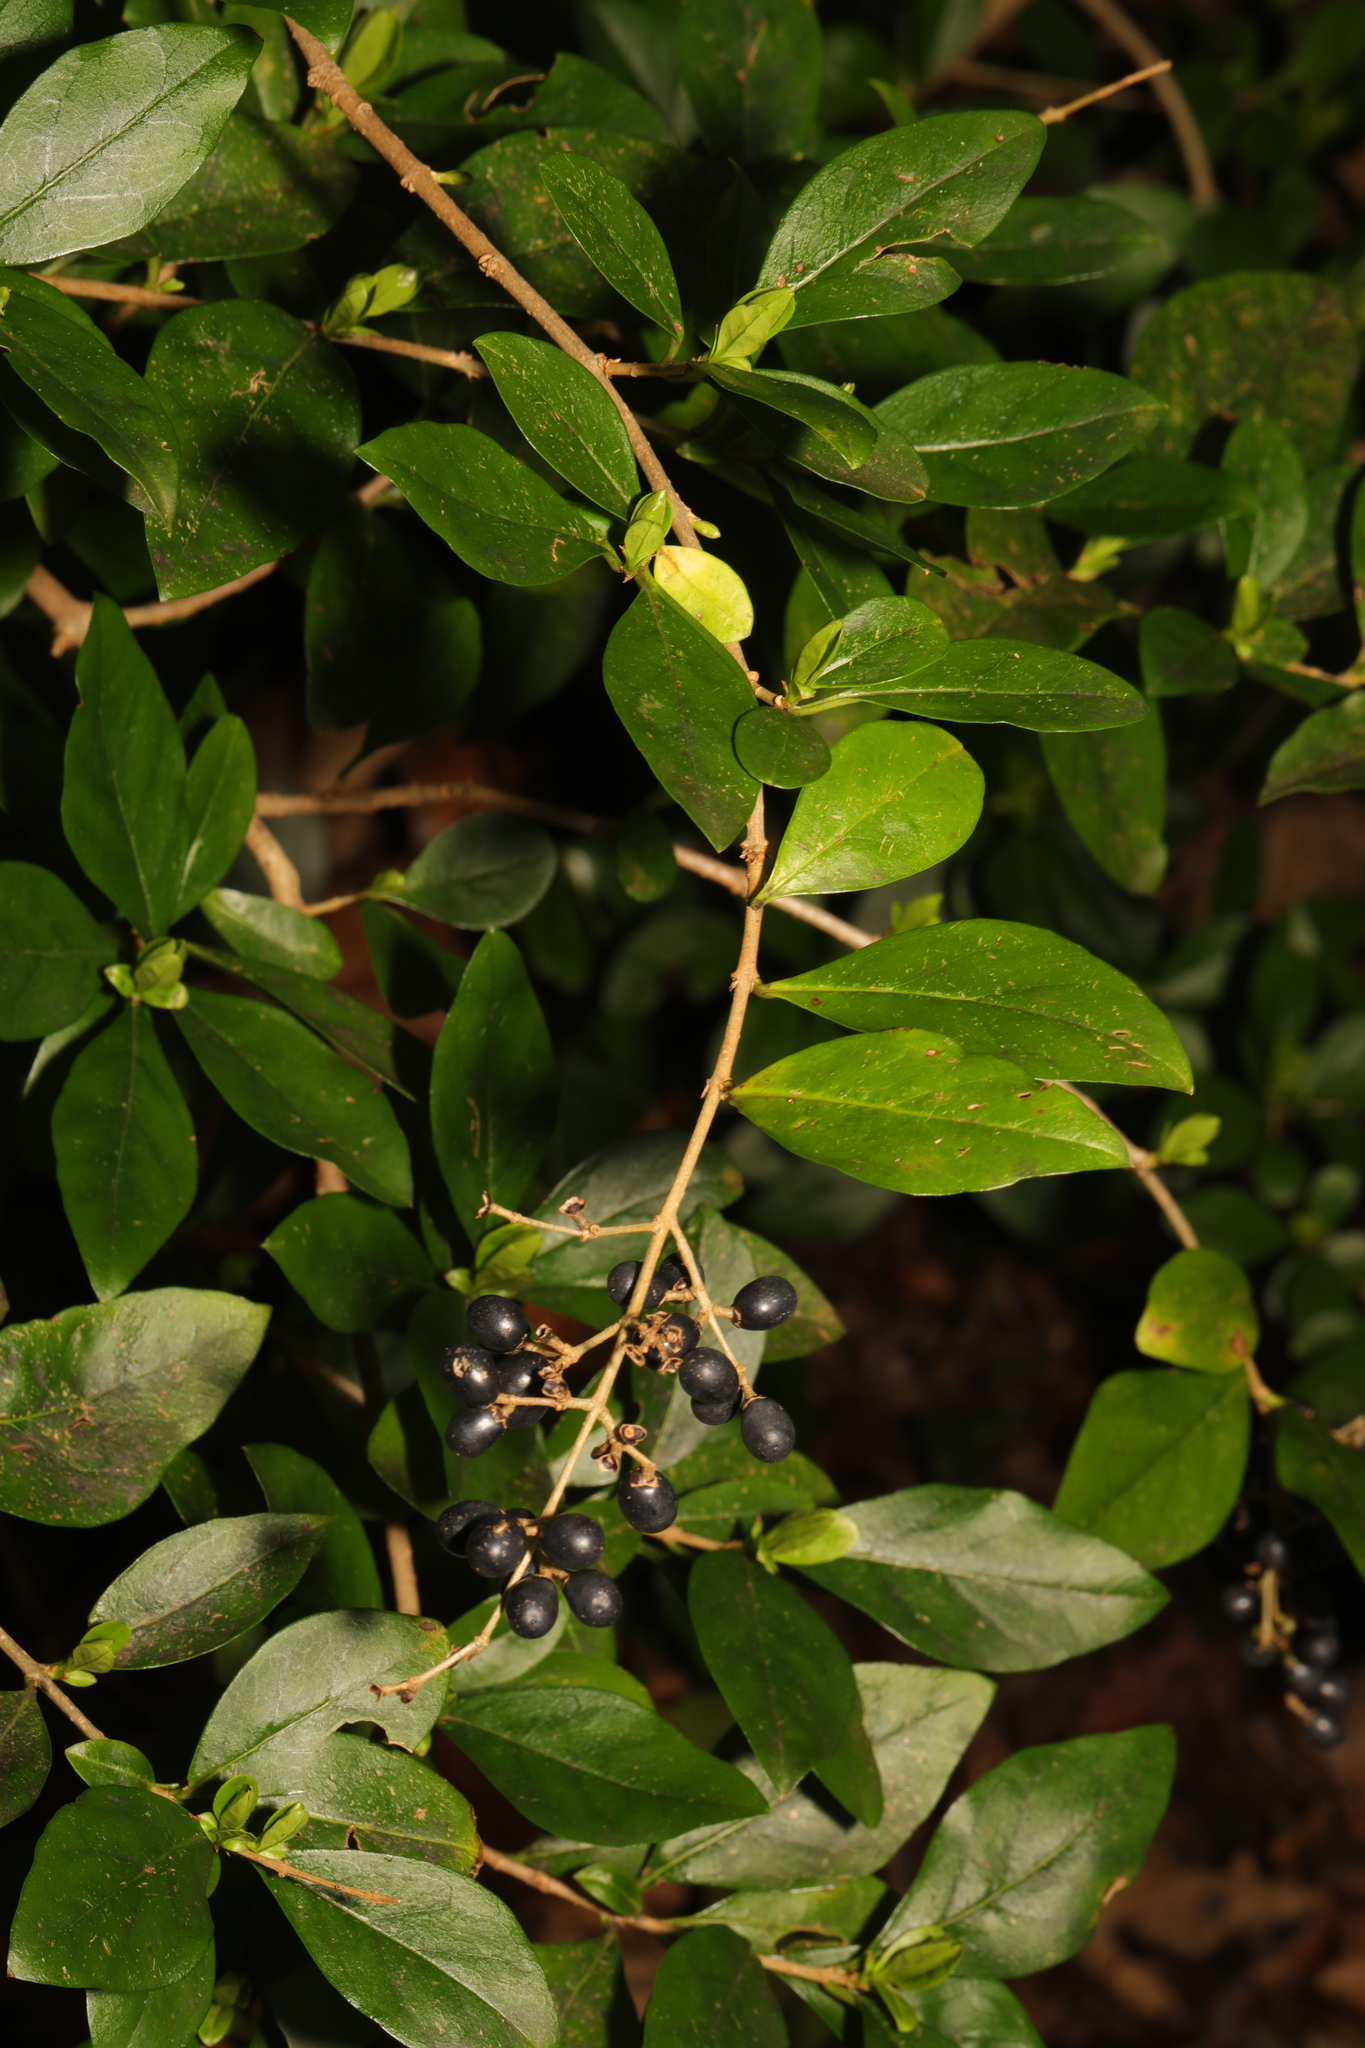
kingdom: Plantae
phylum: Tracheophyta
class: Magnoliopsida
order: Lamiales
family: Oleaceae
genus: Ligustrum
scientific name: Ligustrum ovalifolium
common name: California privet
